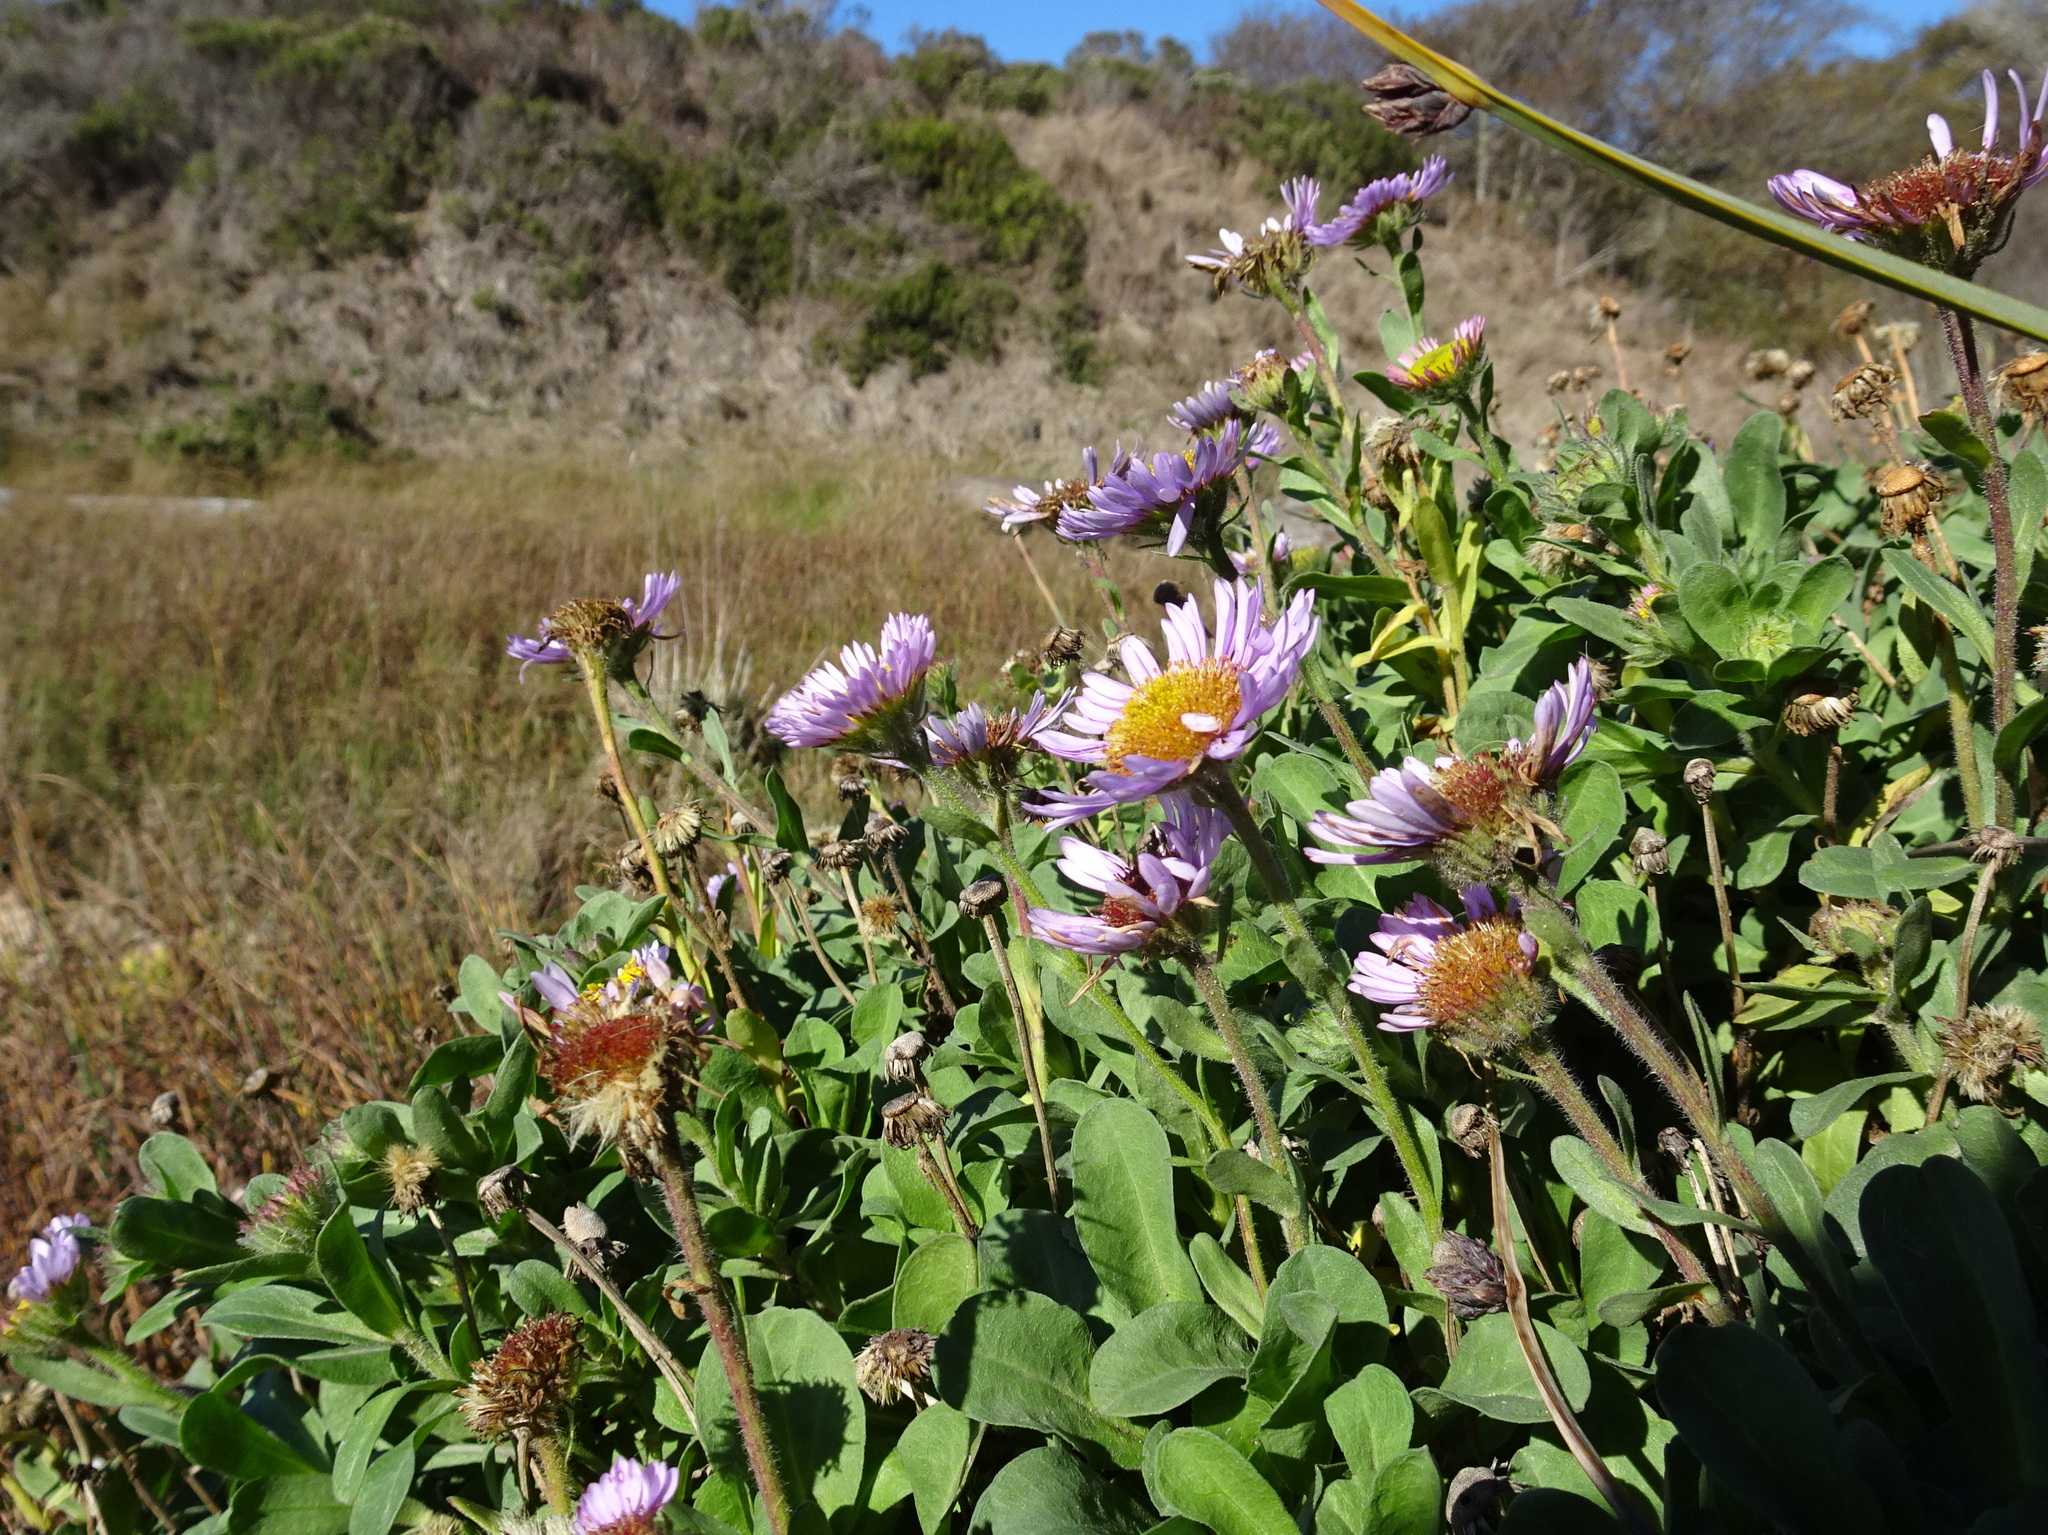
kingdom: Plantae
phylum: Tracheophyta
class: Magnoliopsida
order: Asterales
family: Asteraceae
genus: Erigeron
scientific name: Erigeron glaucus
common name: Seaside daisy
